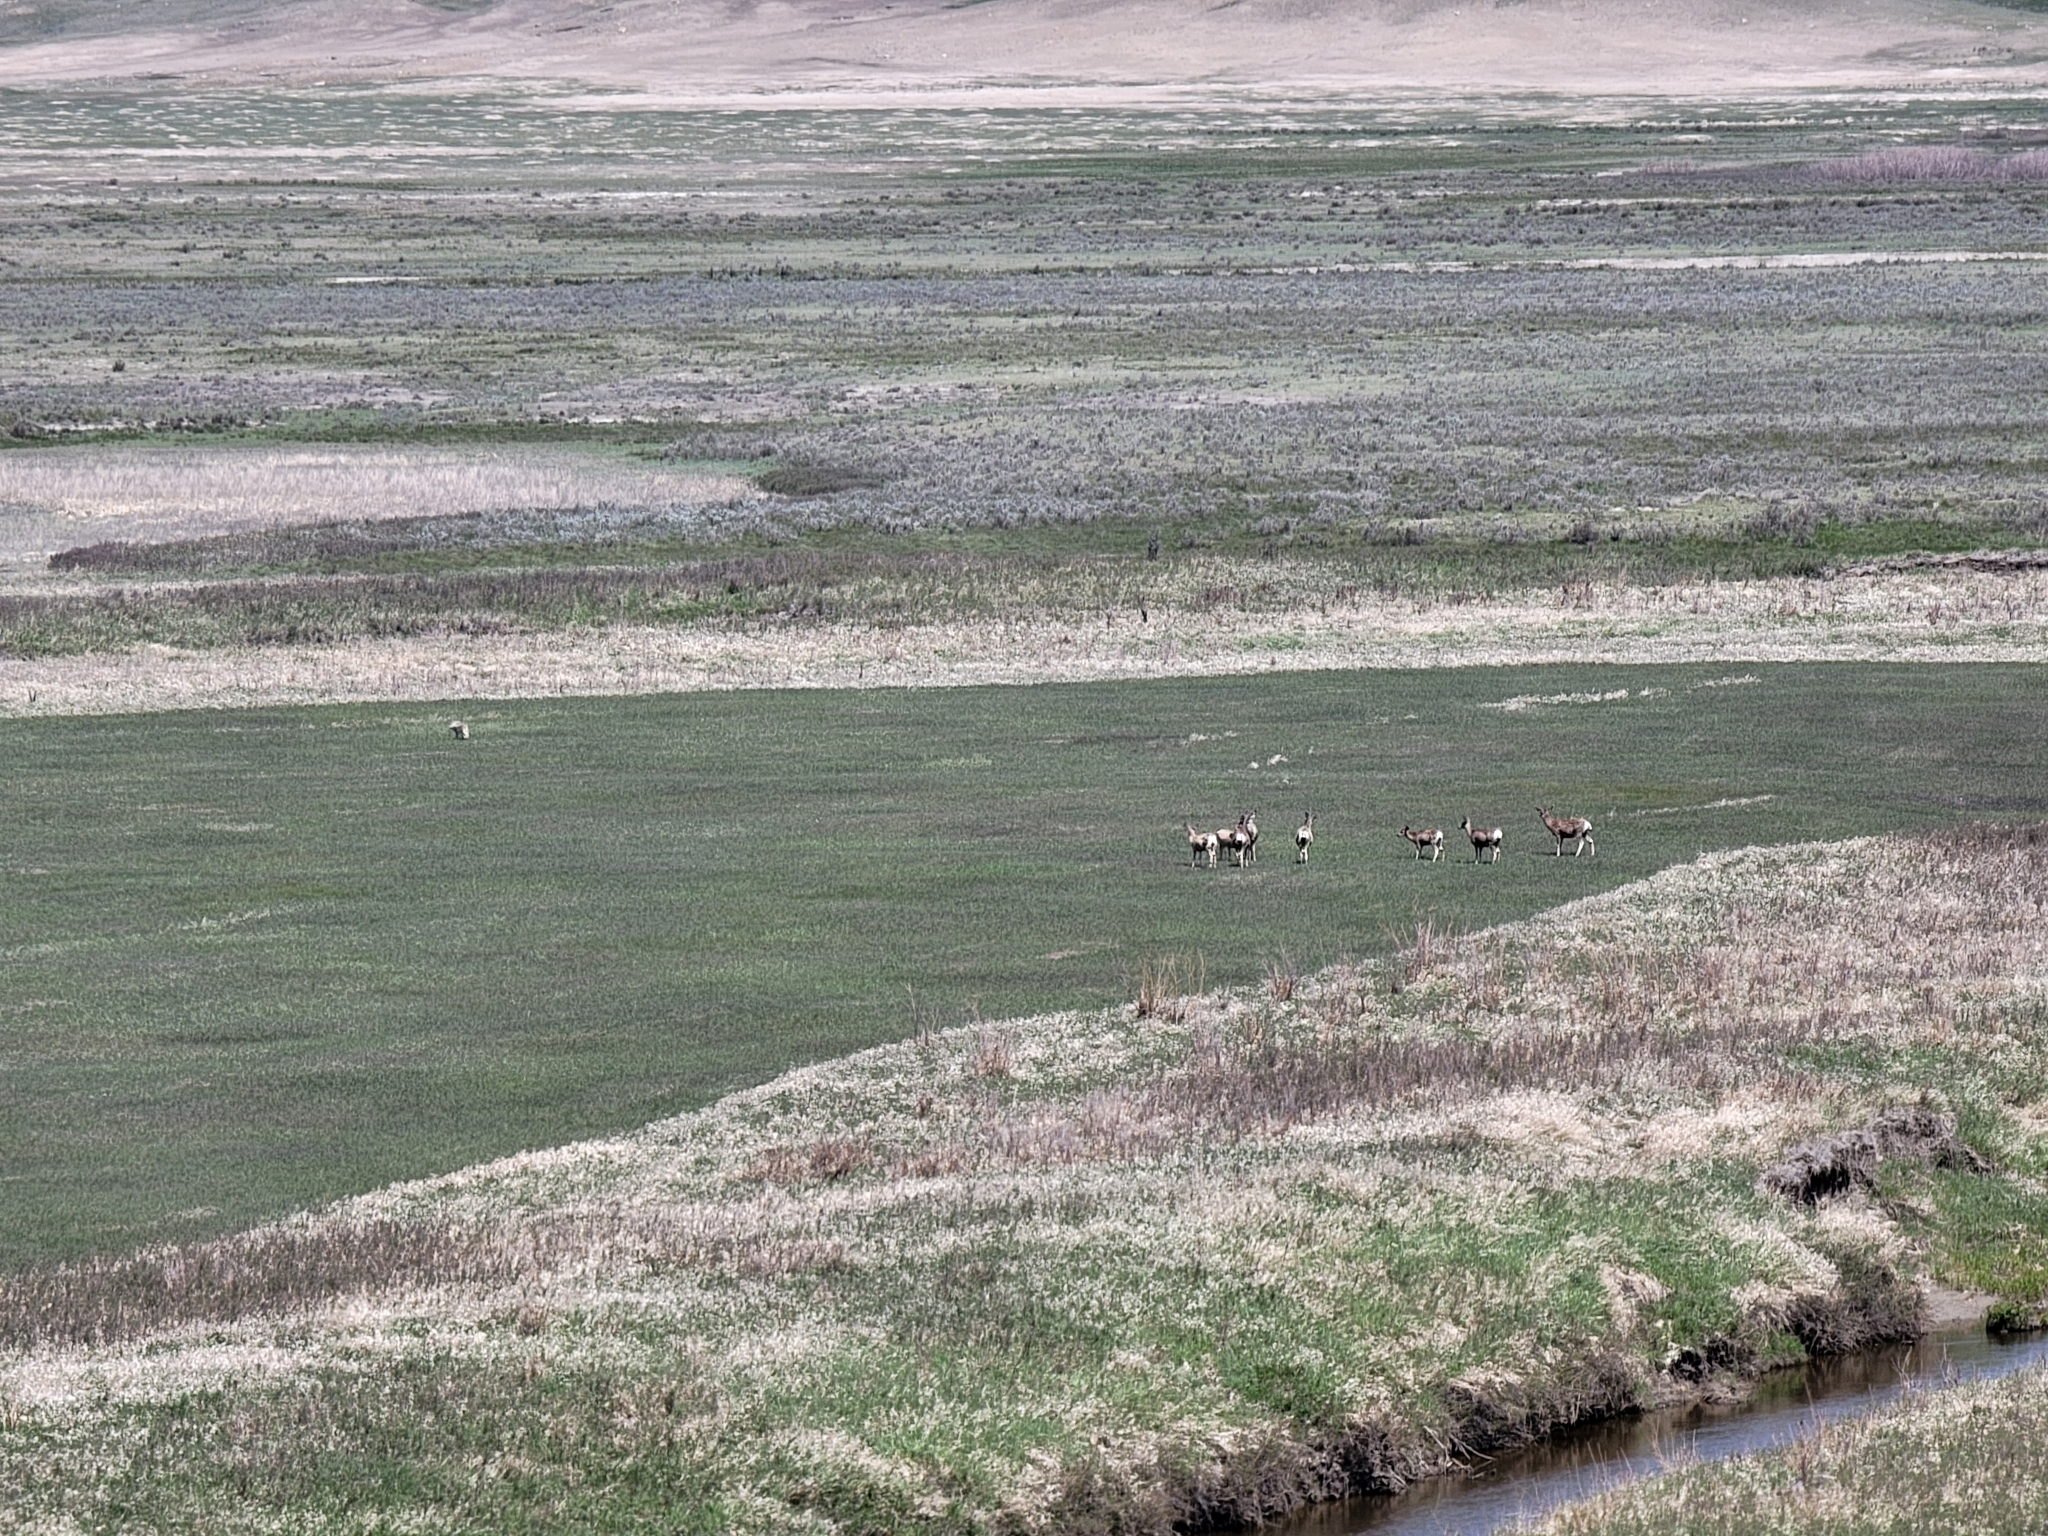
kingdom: Animalia
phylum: Chordata
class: Mammalia
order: Artiodactyla
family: Cervidae
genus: Odocoileus
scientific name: Odocoileus hemionus
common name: Mule deer
